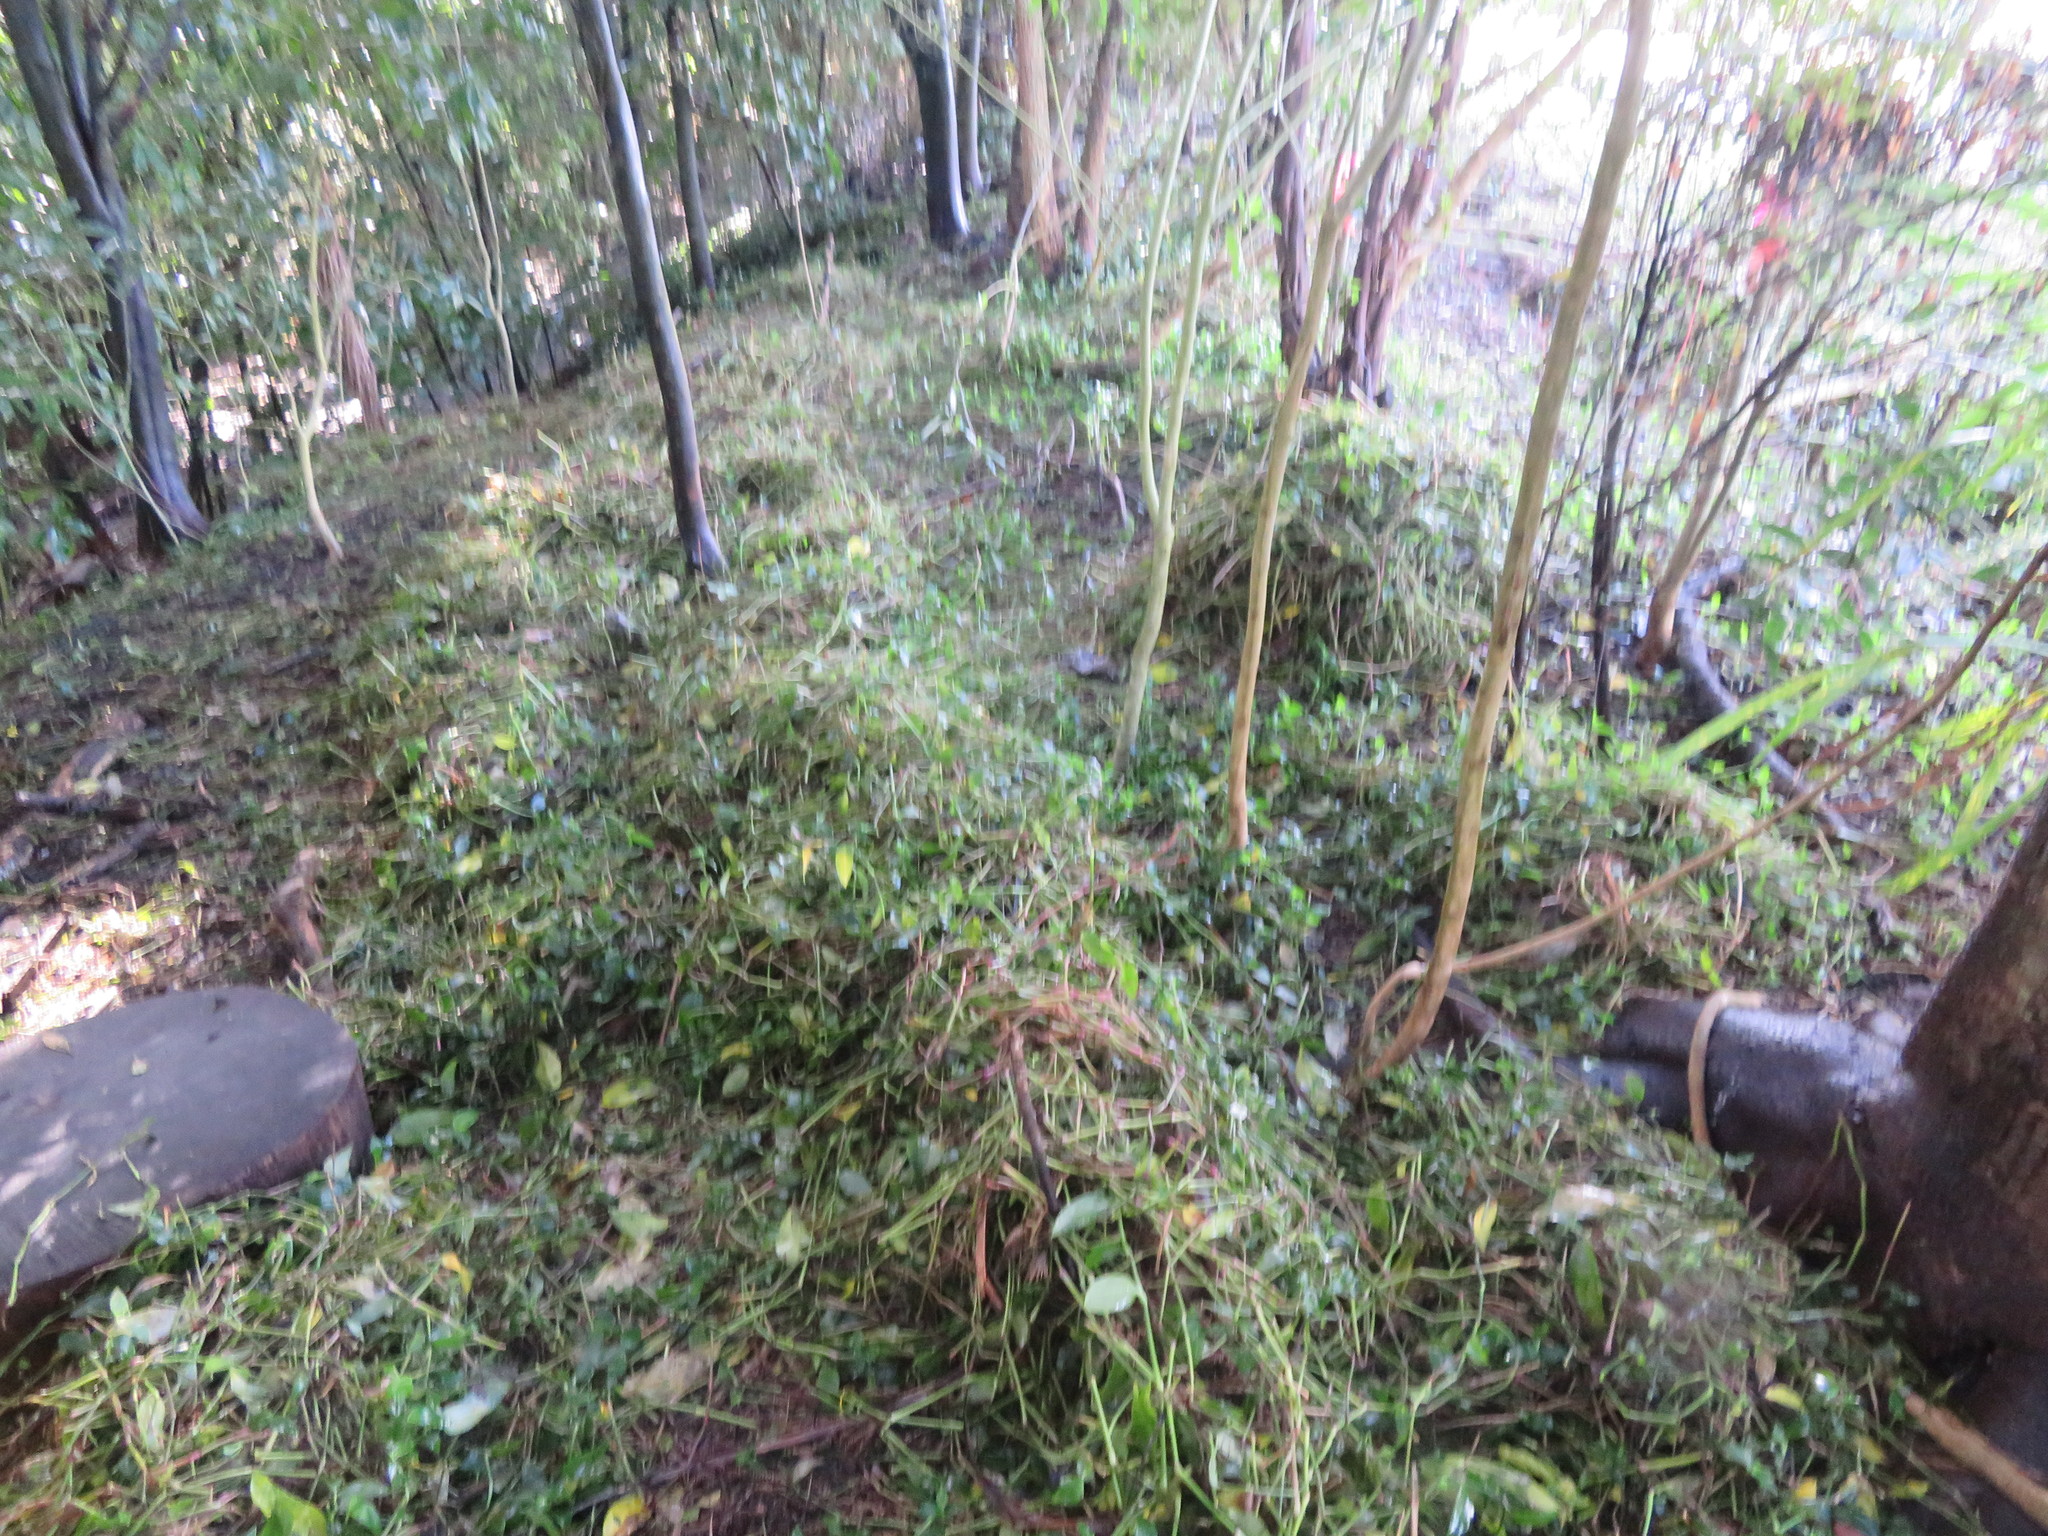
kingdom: Plantae
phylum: Tracheophyta
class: Liliopsida
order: Commelinales
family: Commelinaceae
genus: Tradescantia
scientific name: Tradescantia fluminensis
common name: Wandering-jew
